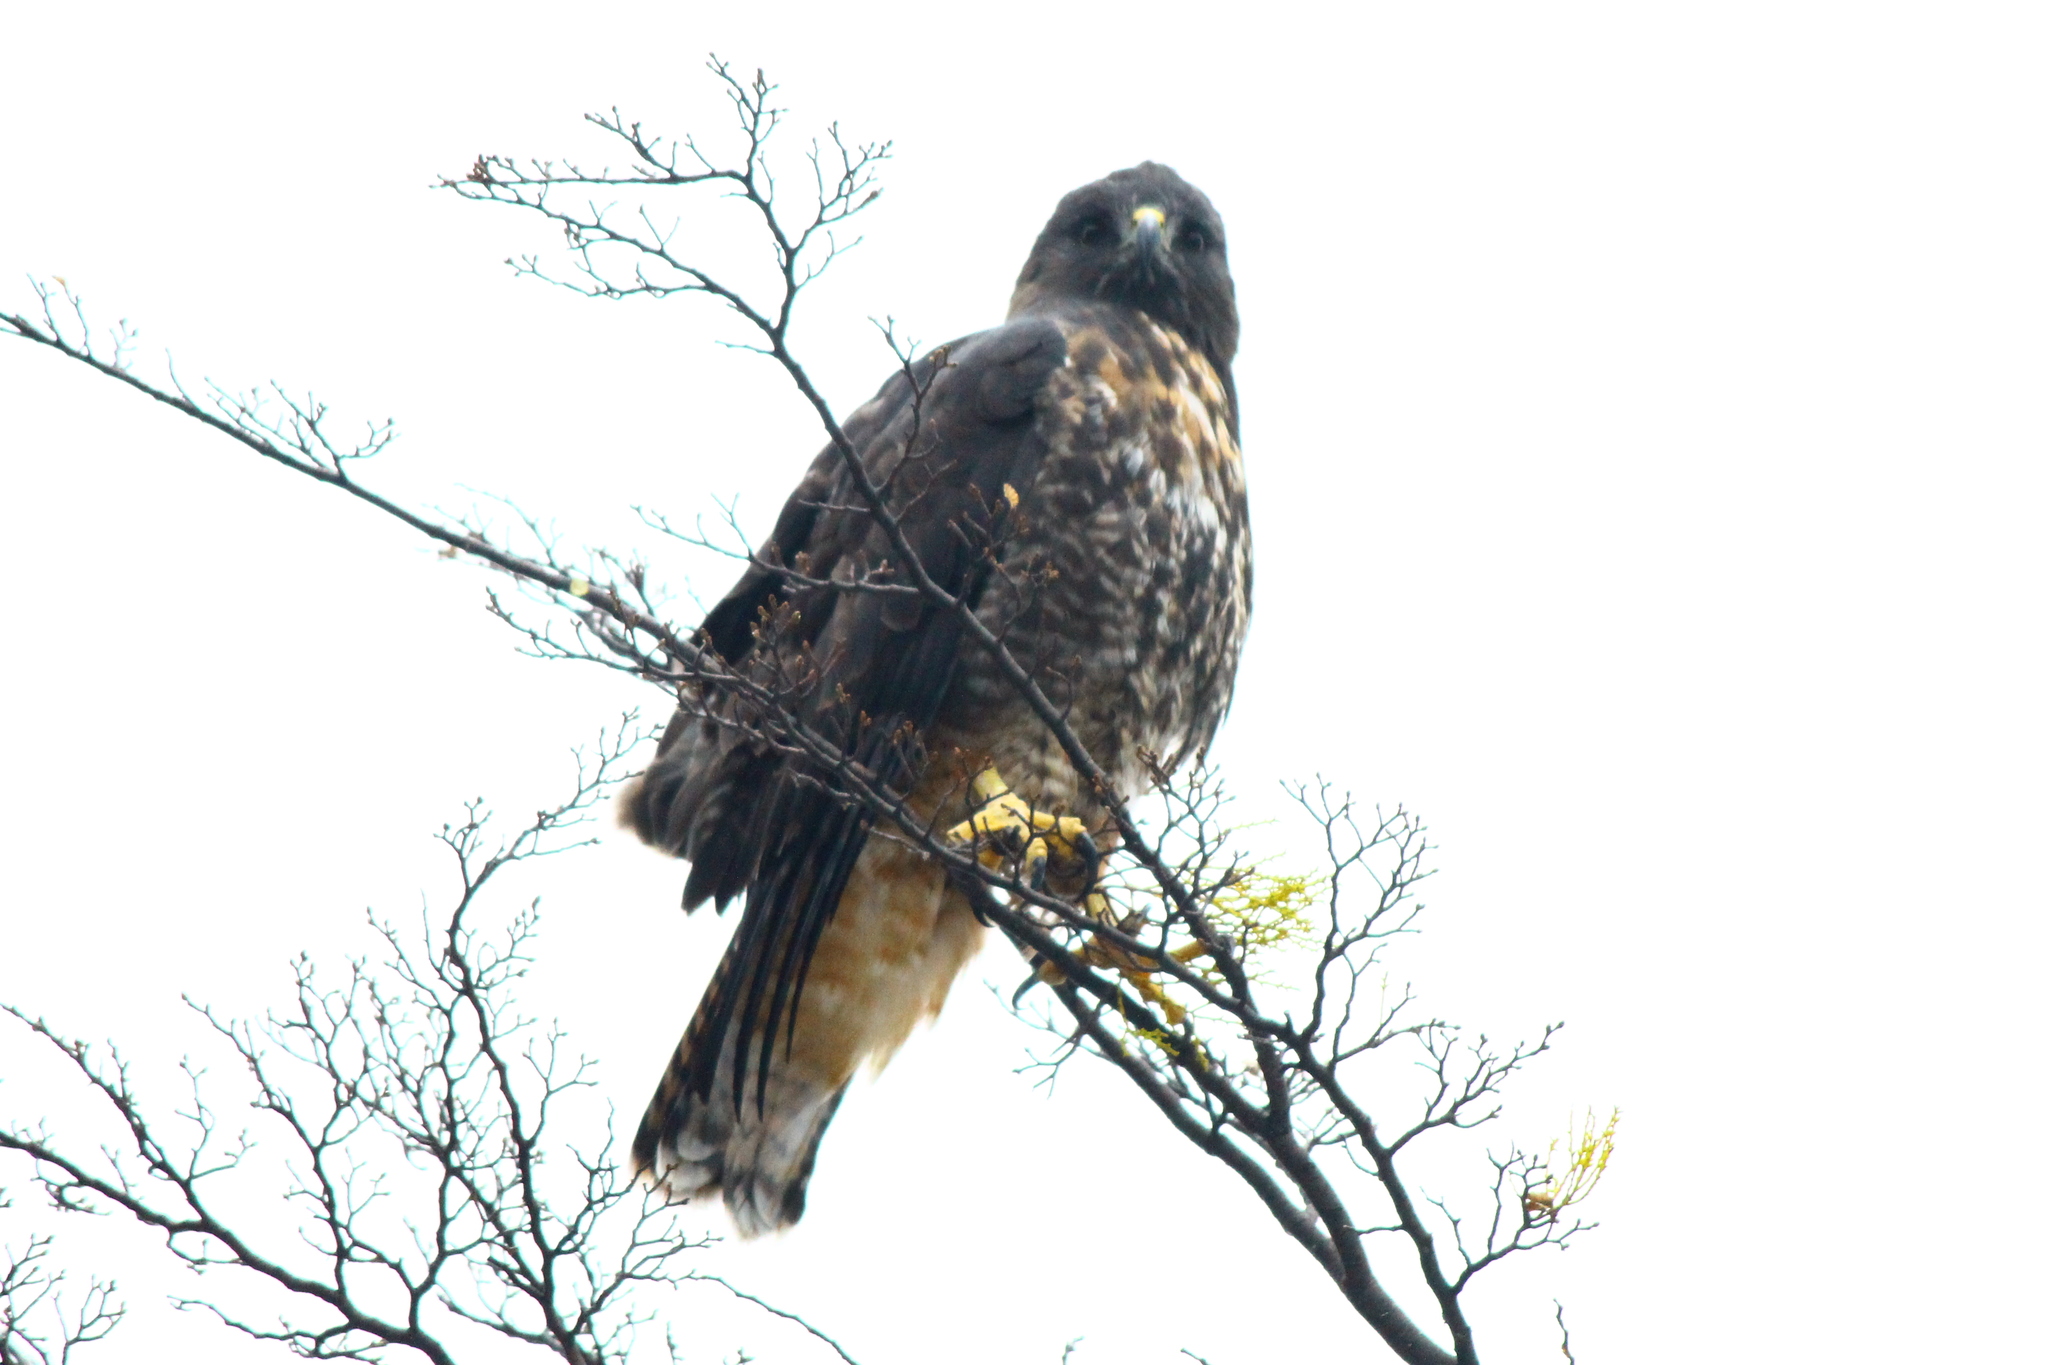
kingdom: Animalia
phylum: Chordata
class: Aves
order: Accipitriformes
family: Accipitridae
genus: Geranoaetus
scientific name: Geranoaetus melanoleucus
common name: Black-chested buzzard-eagle
